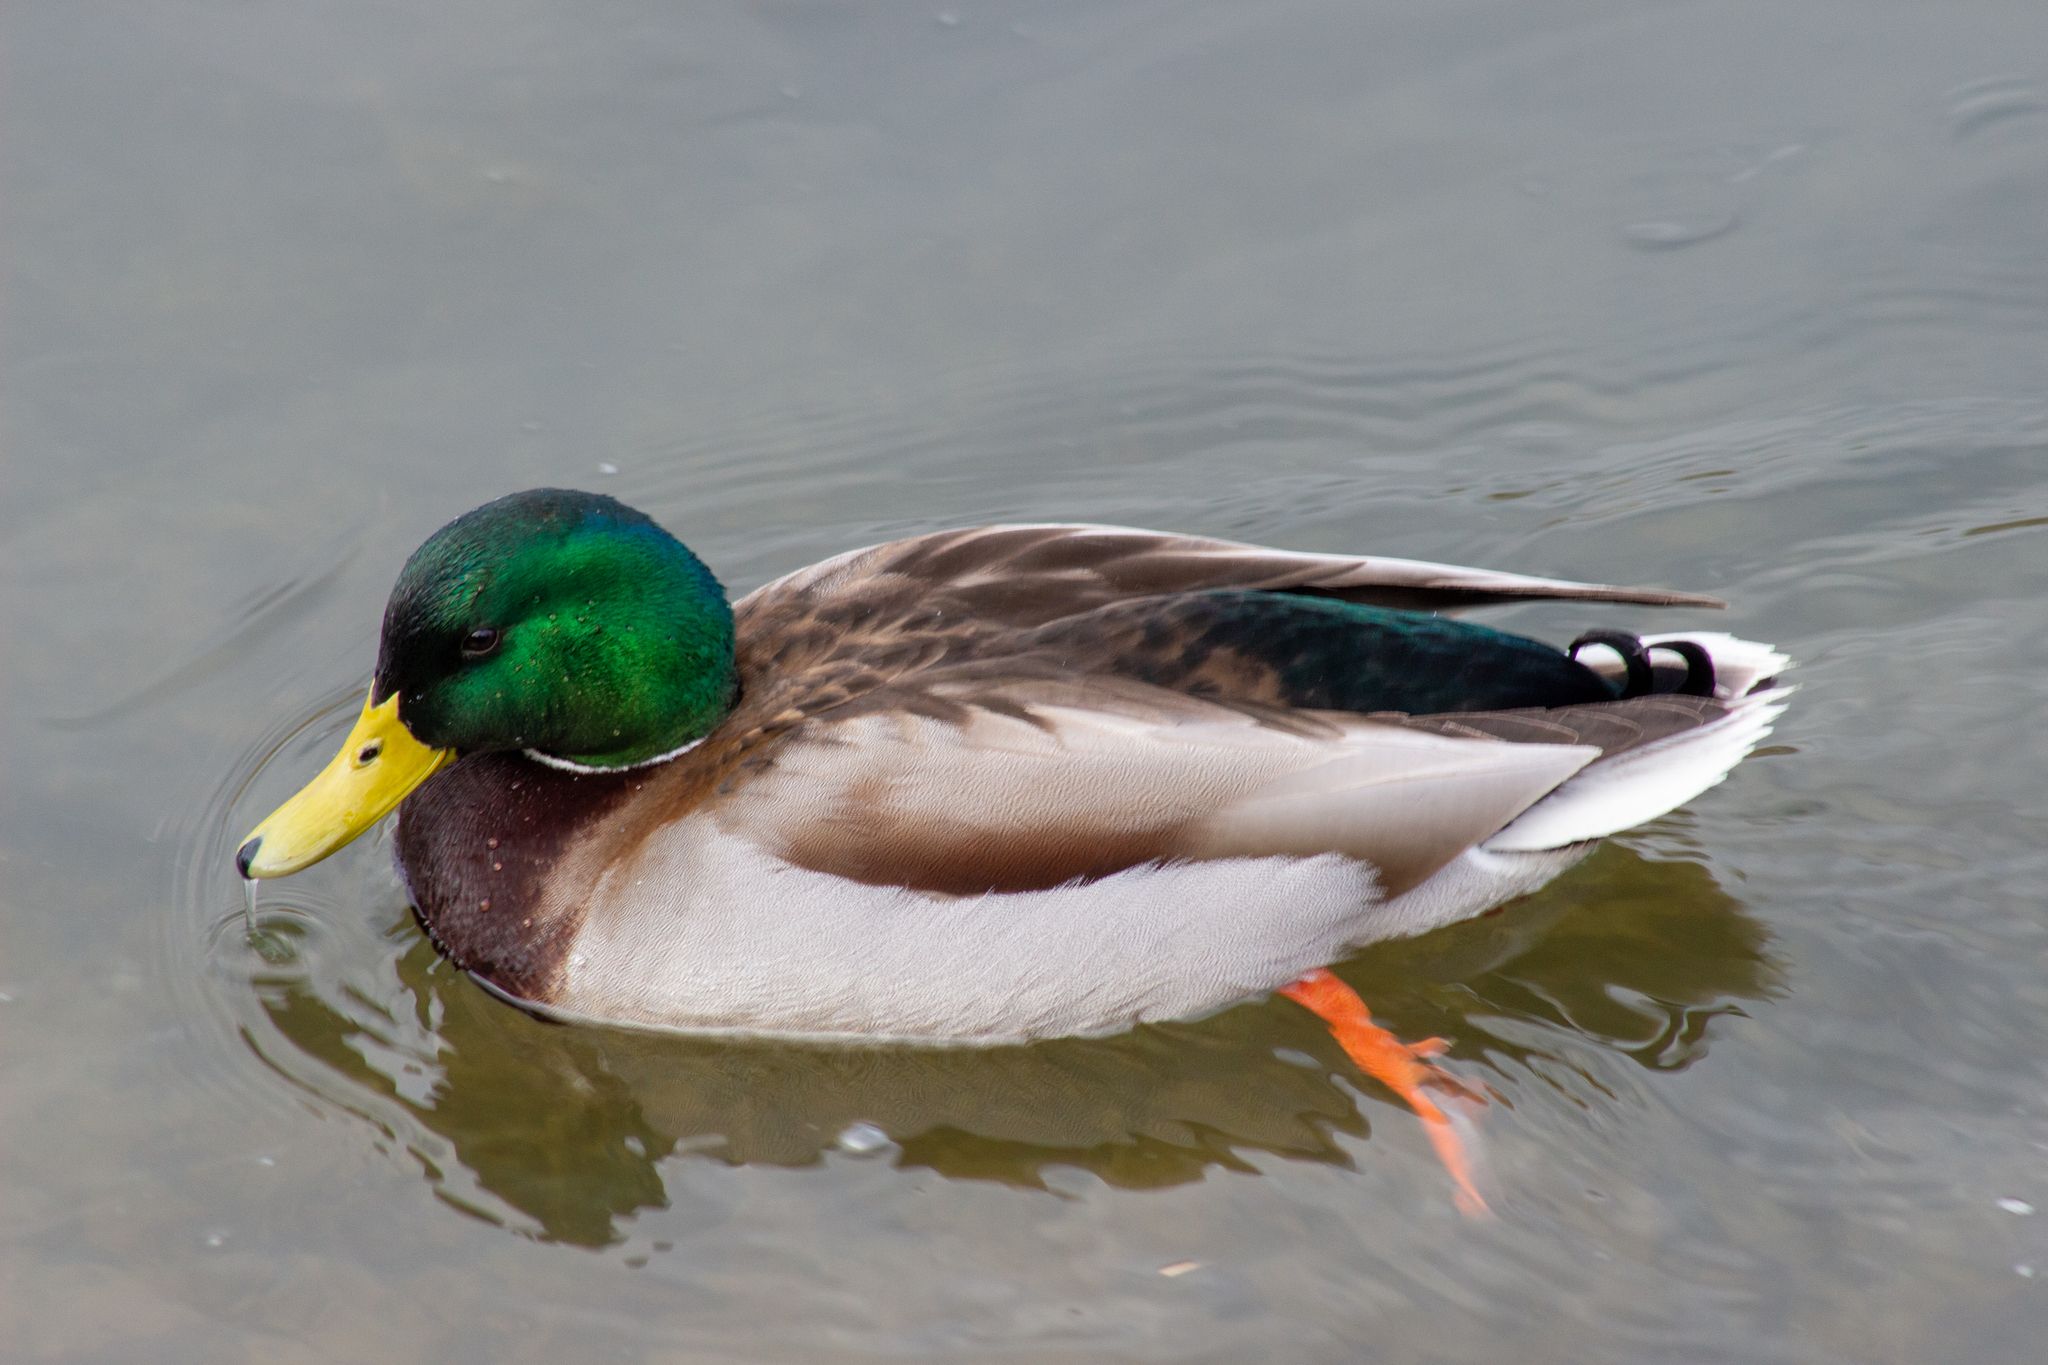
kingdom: Animalia
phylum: Chordata
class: Aves
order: Anseriformes
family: Anatidae
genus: Anas
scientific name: Anas platyrhynchos
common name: Mallard
